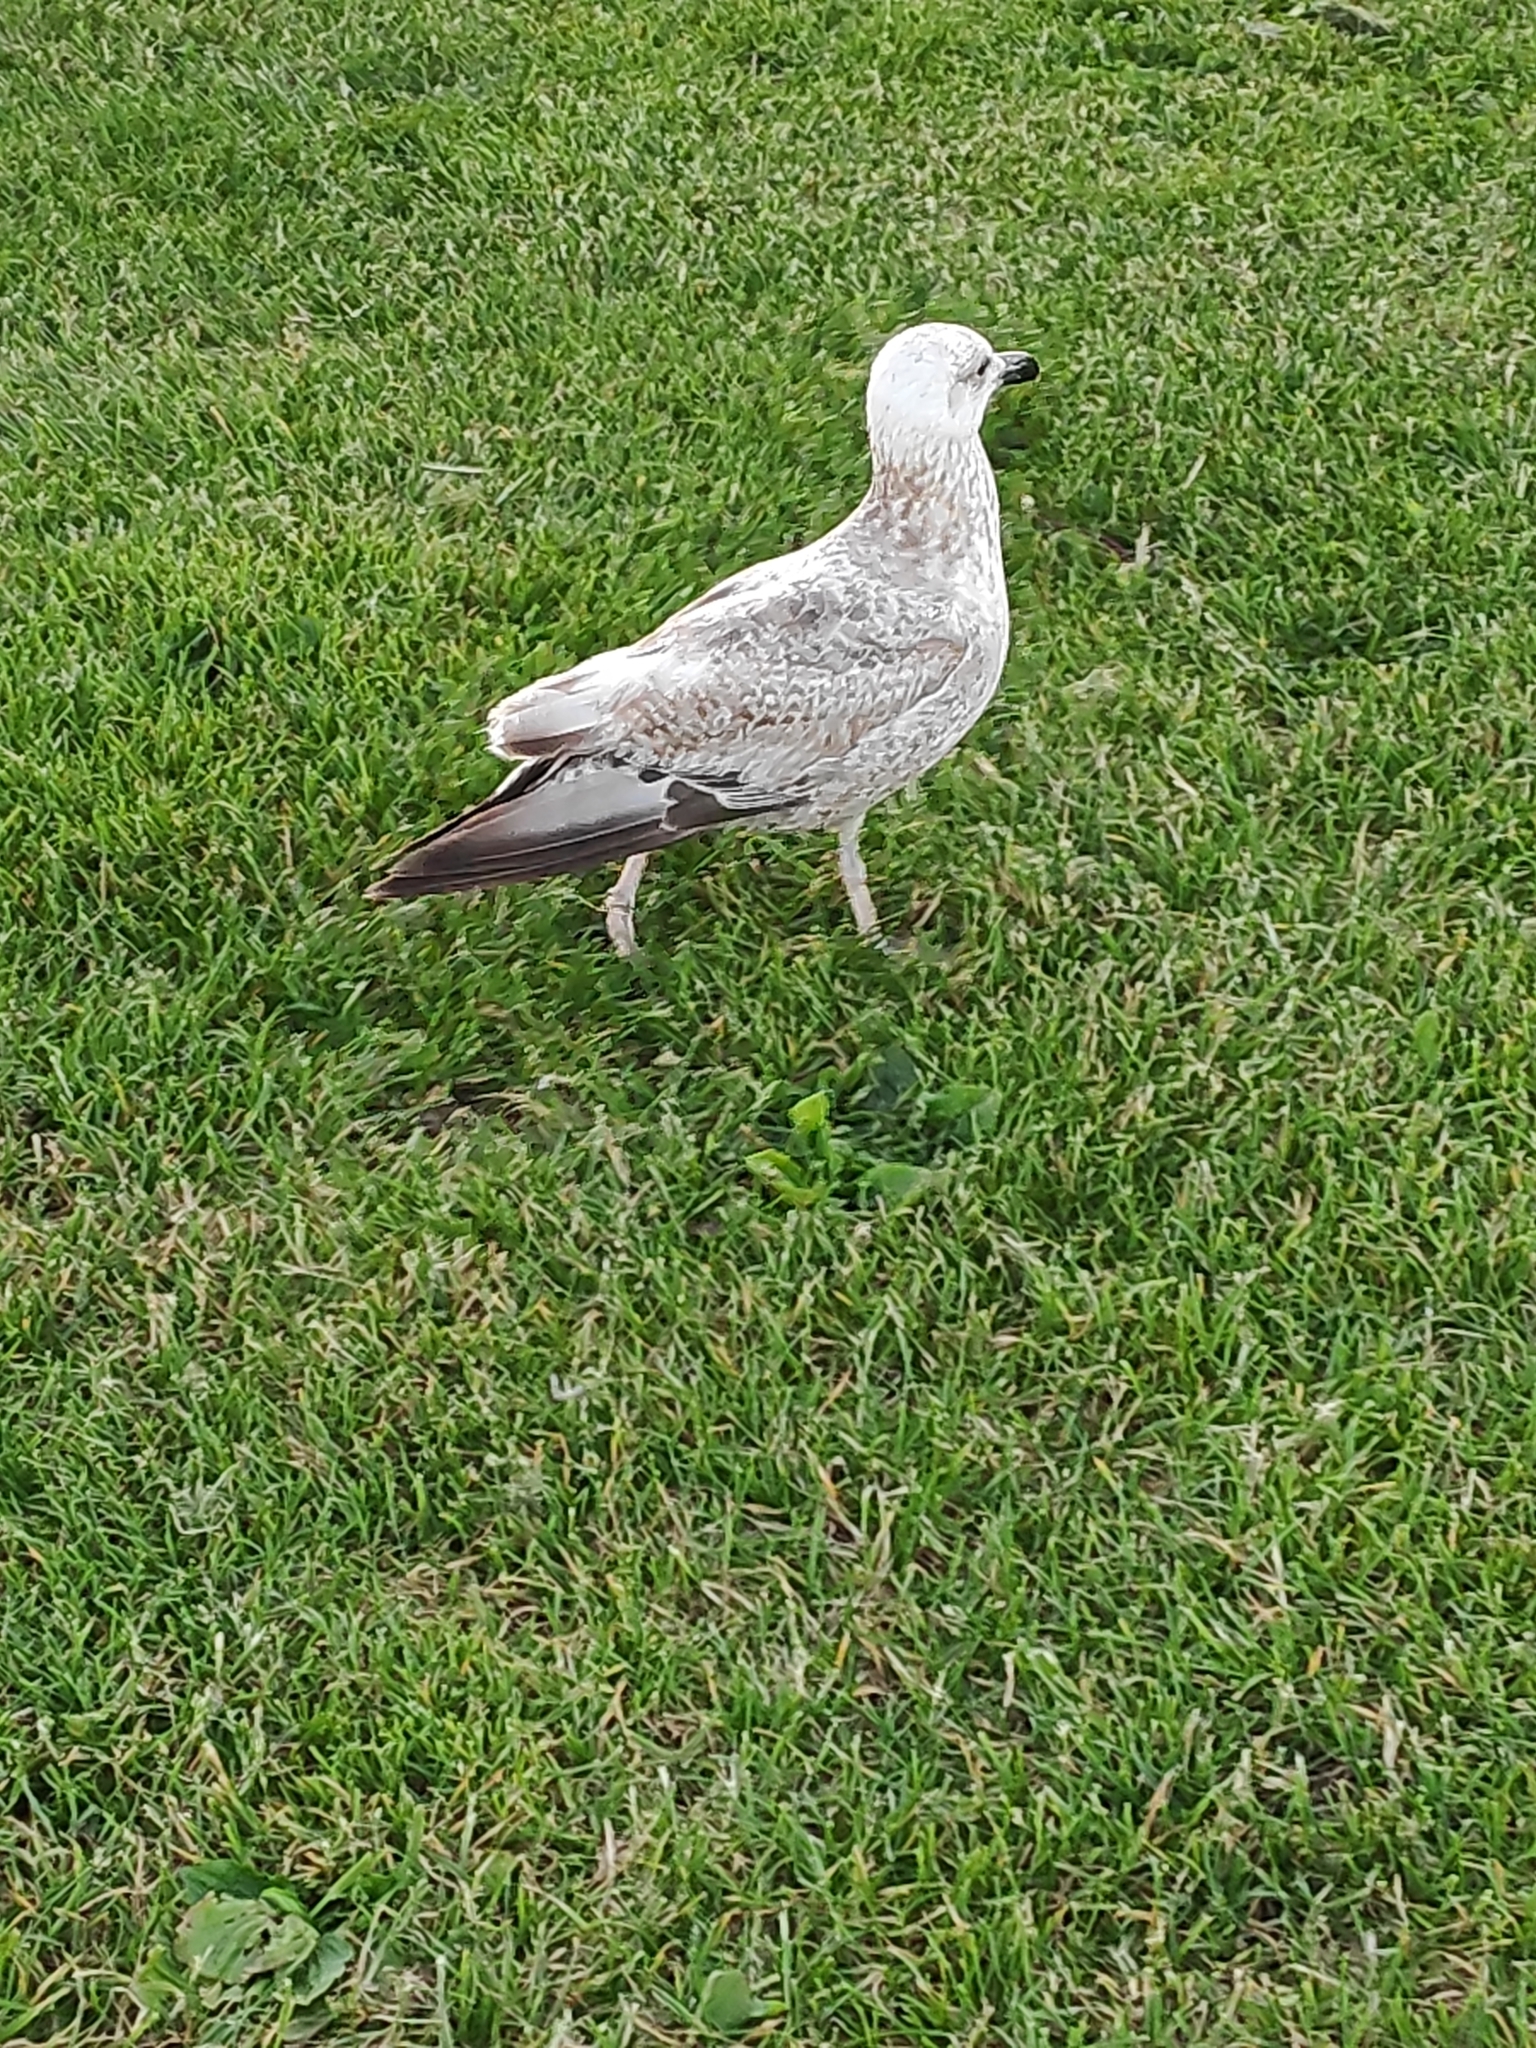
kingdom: Animalia
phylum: Chordata
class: Aves
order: Charadriiformes
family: Laridae
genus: Larus
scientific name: Larus argentatus
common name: Herring gull
